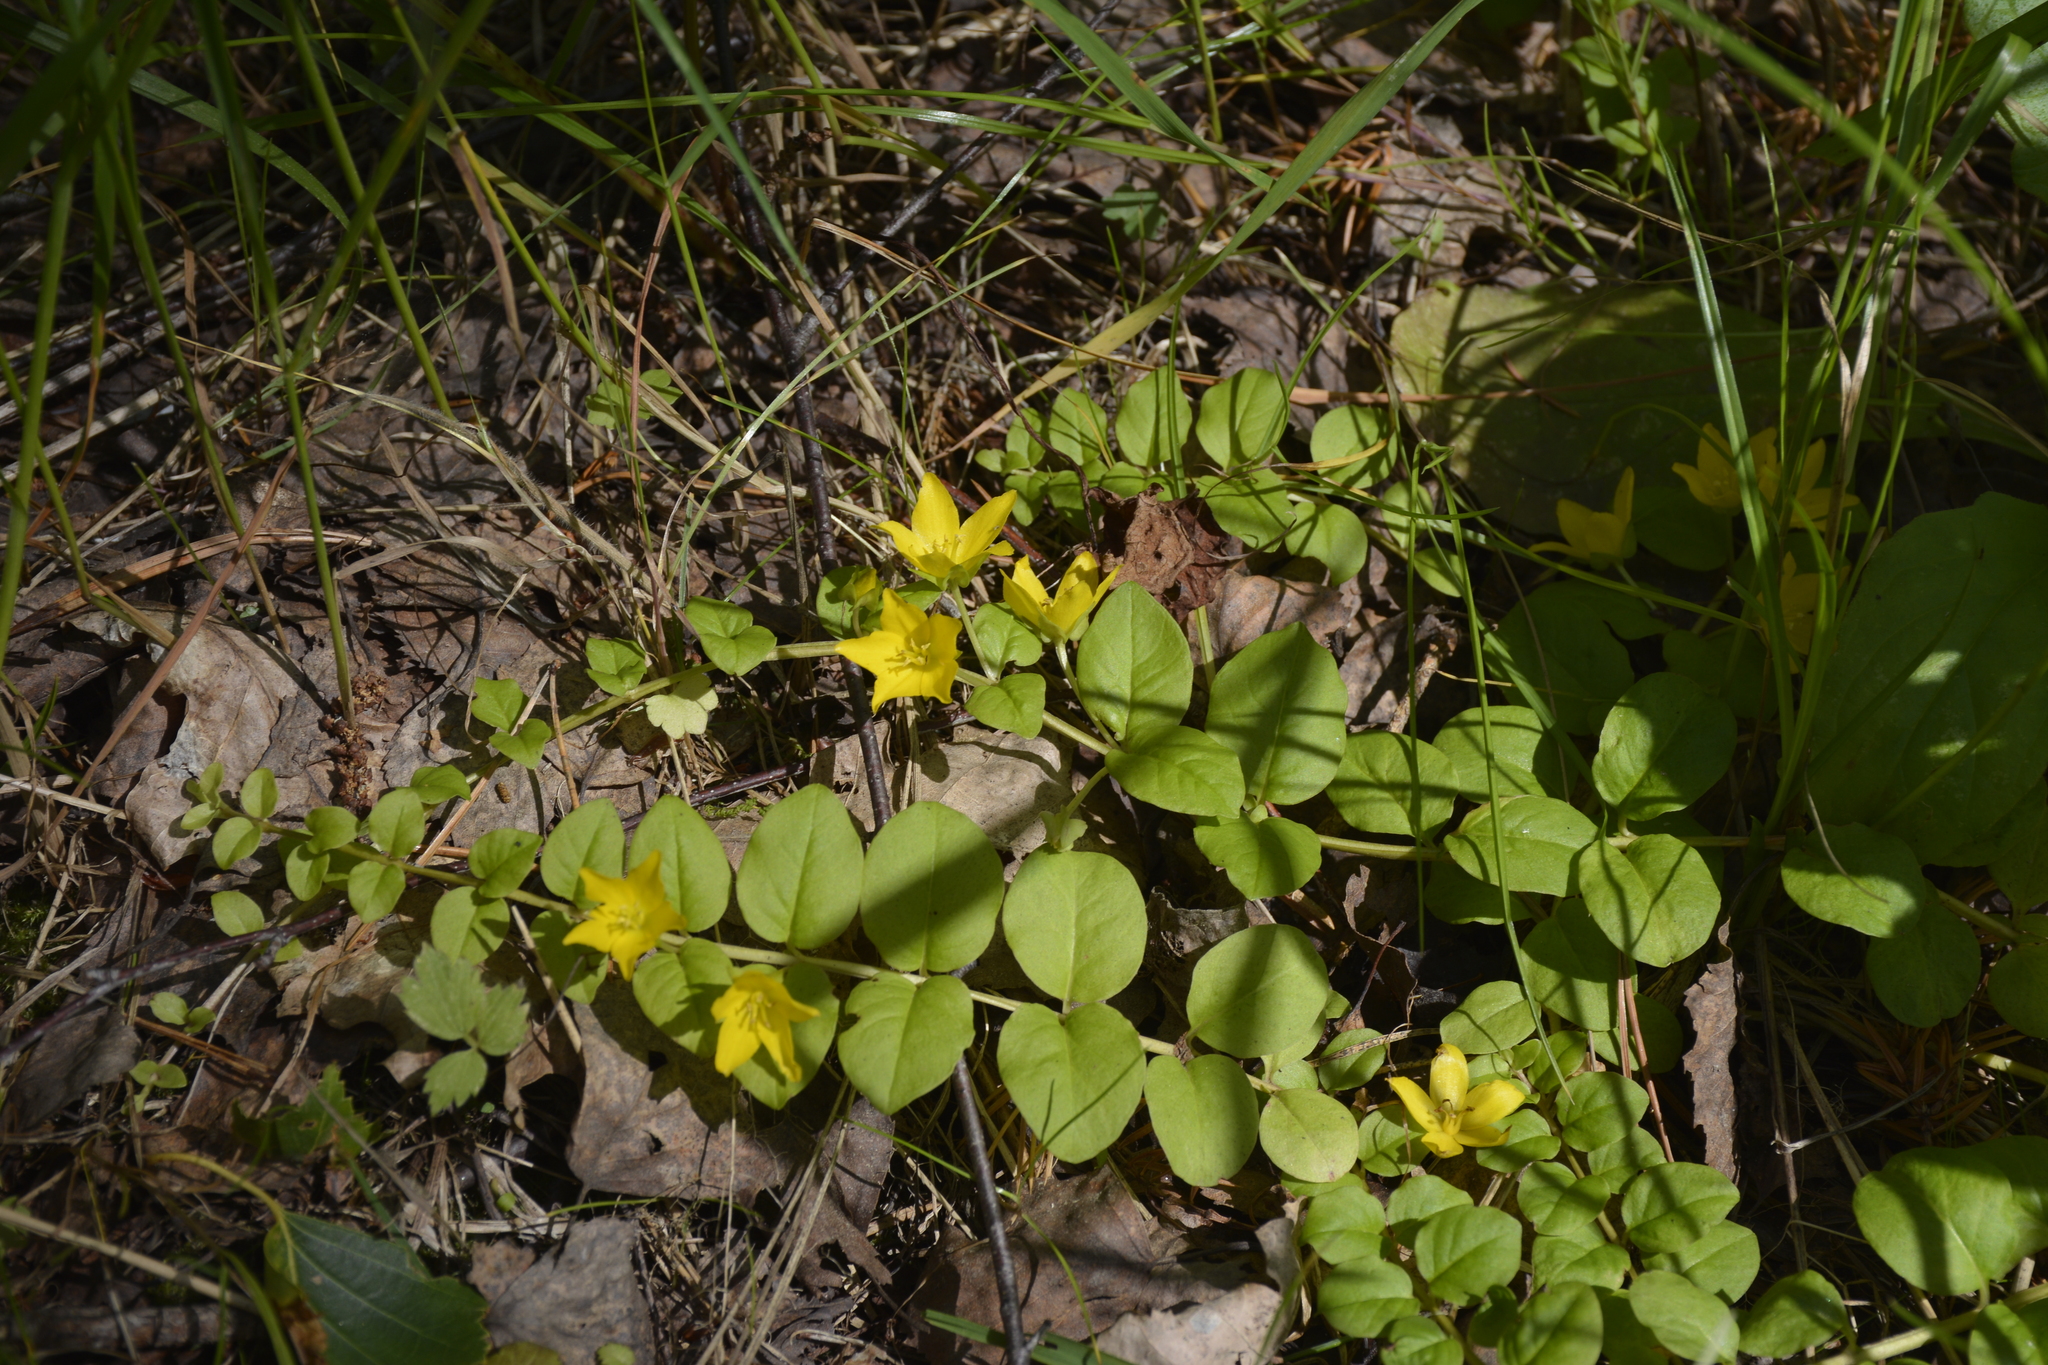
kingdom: Plantae
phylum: Tracheophyta
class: Magnoliopsida
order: Ericales
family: Primulaceae
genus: Lysimachia
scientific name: Lysimachia nummularia
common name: Moneywort
